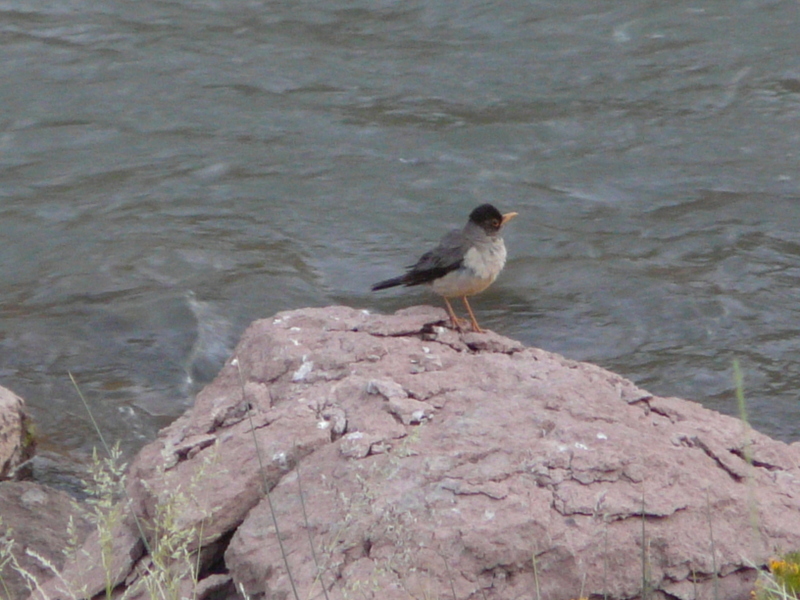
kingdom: Animalia
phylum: Chordata
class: Aves
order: Passeriformes
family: Turdidae
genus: Turdus
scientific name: Turdus falcklandii
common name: Austral thrush
